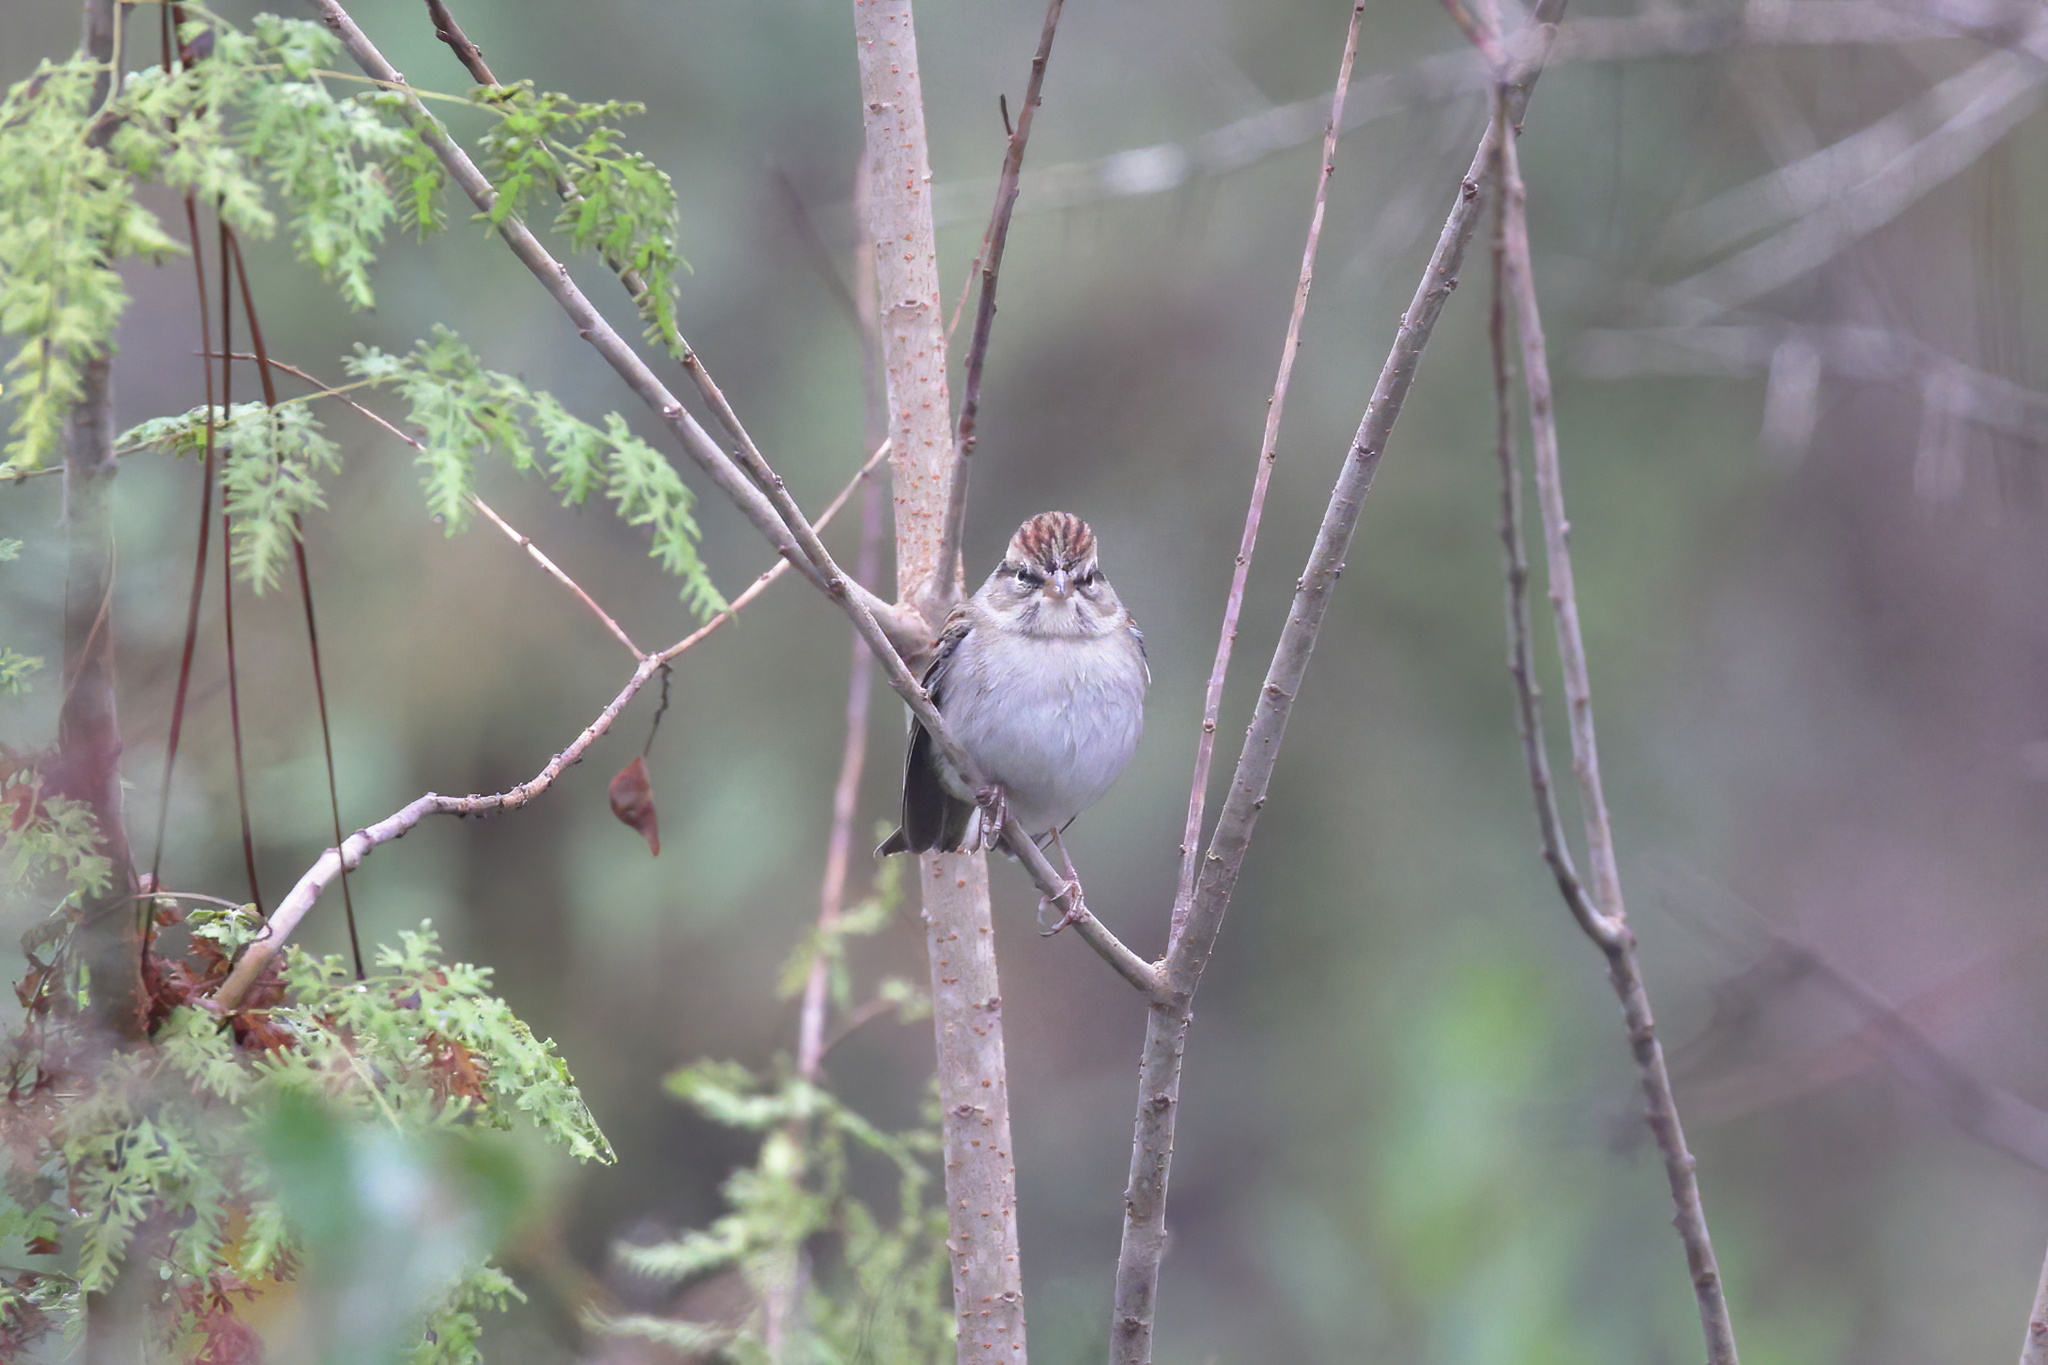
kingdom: Animalia
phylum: Chordata
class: Aves
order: Passeriformes
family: Passerellidae
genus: Spizella
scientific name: Spizella passerina
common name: Chipping sparrow
